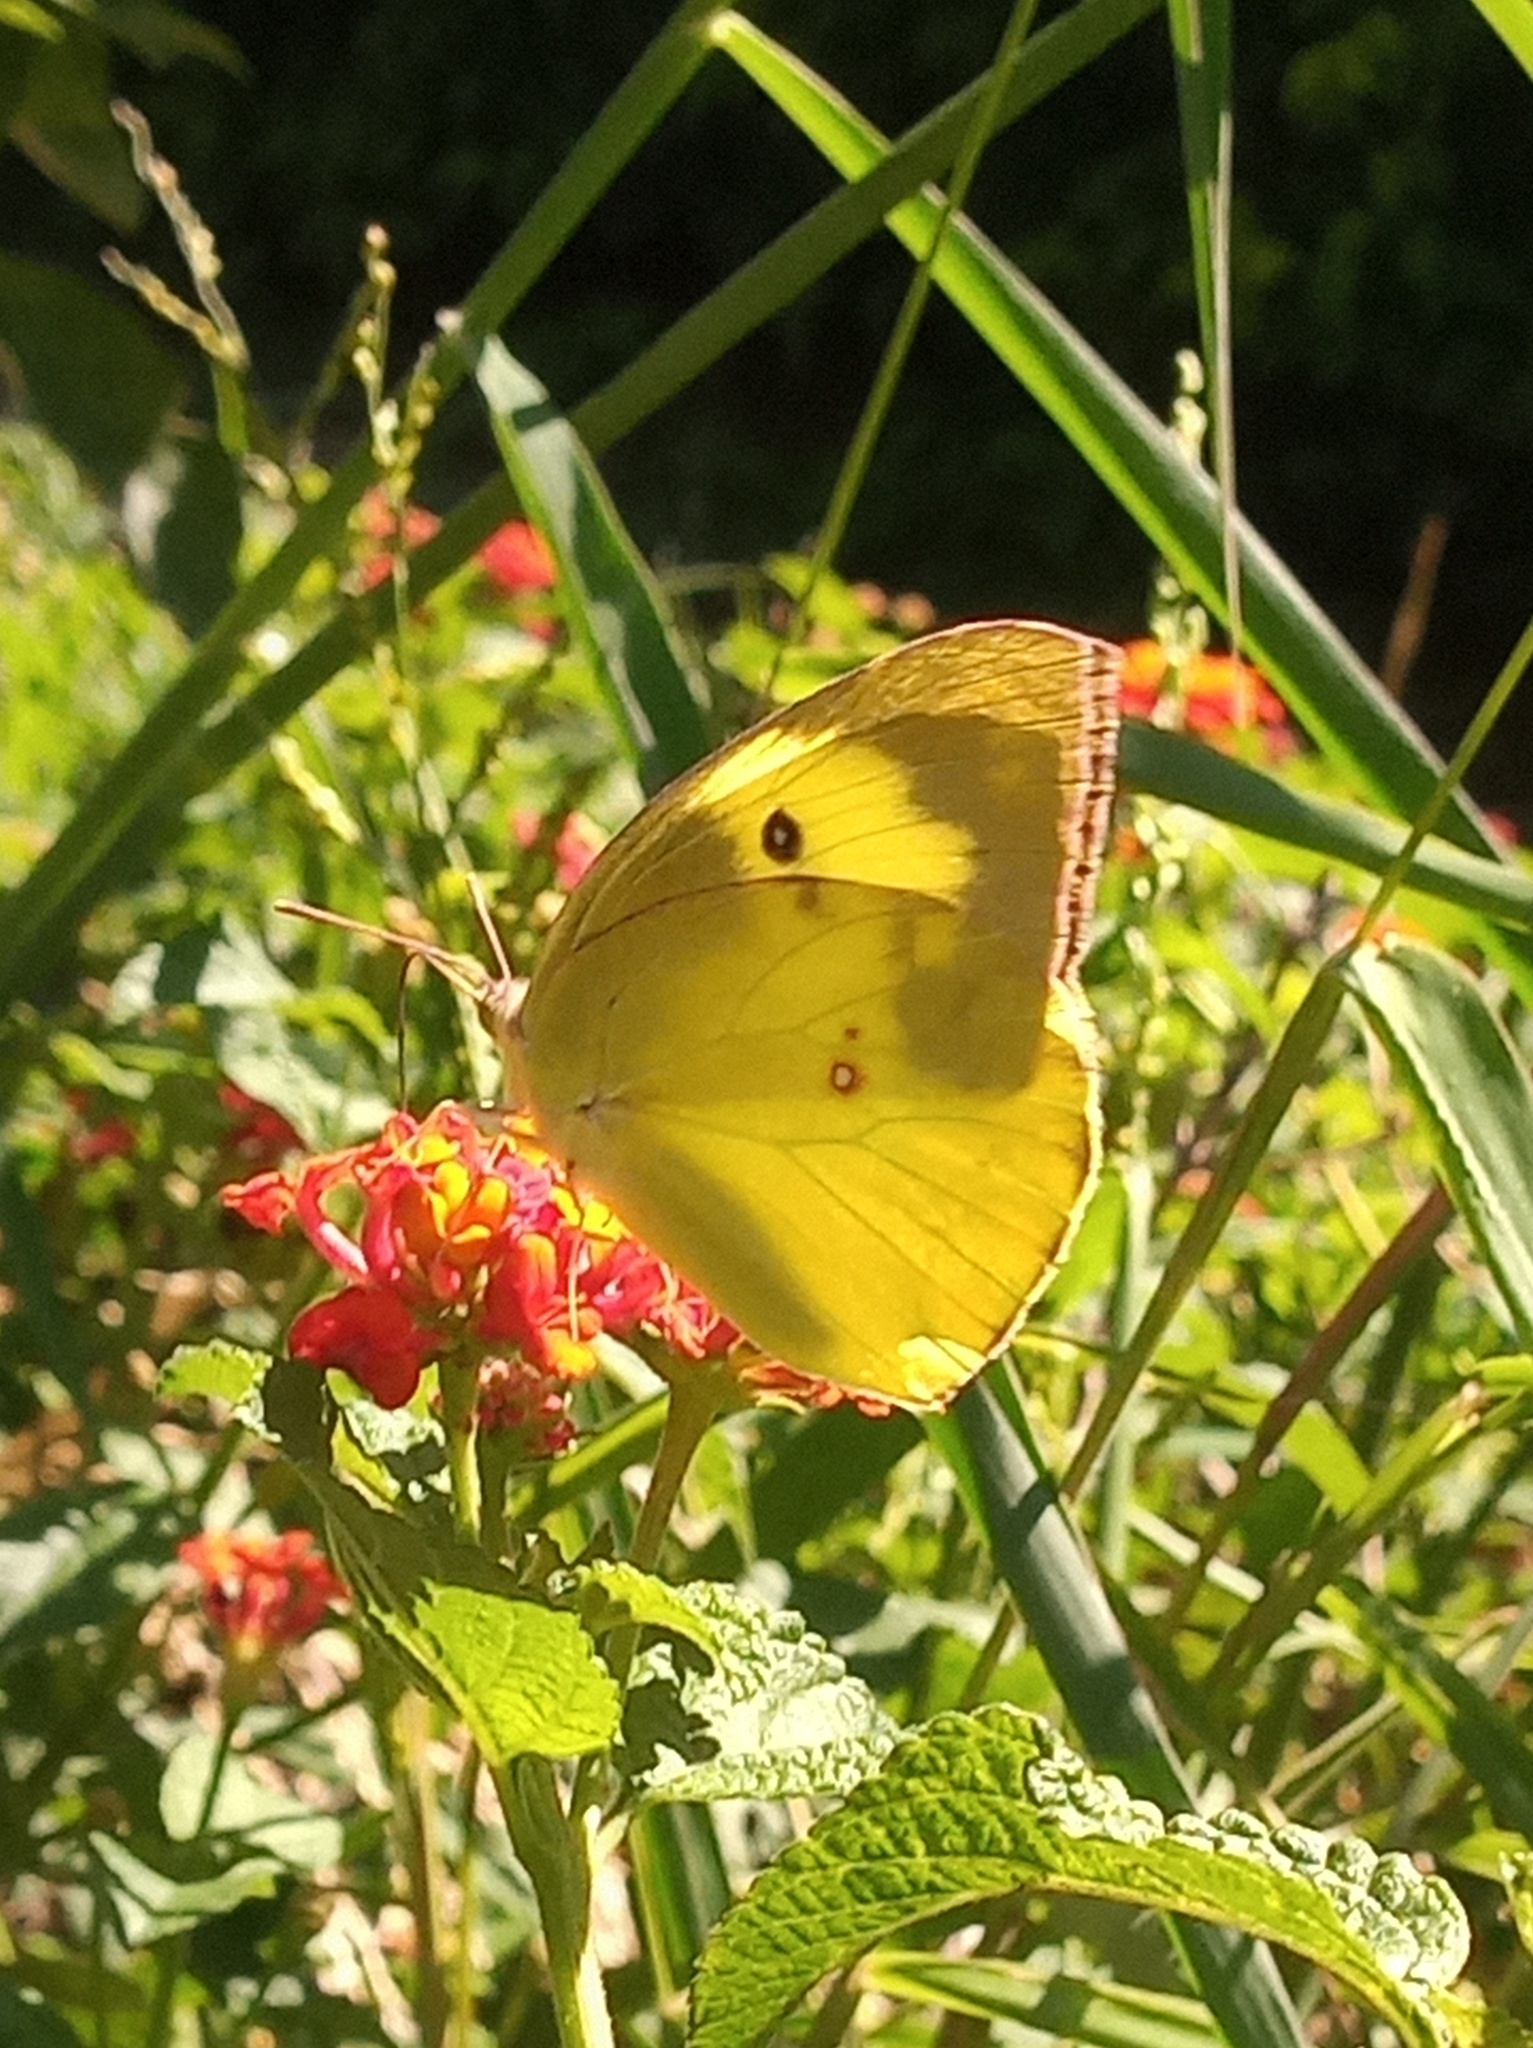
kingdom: Animalia
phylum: Arthropoda
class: Insecta
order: Lepidoptera
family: Pieridae
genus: Zerene
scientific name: Zerene cesonia
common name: Southern dogface
